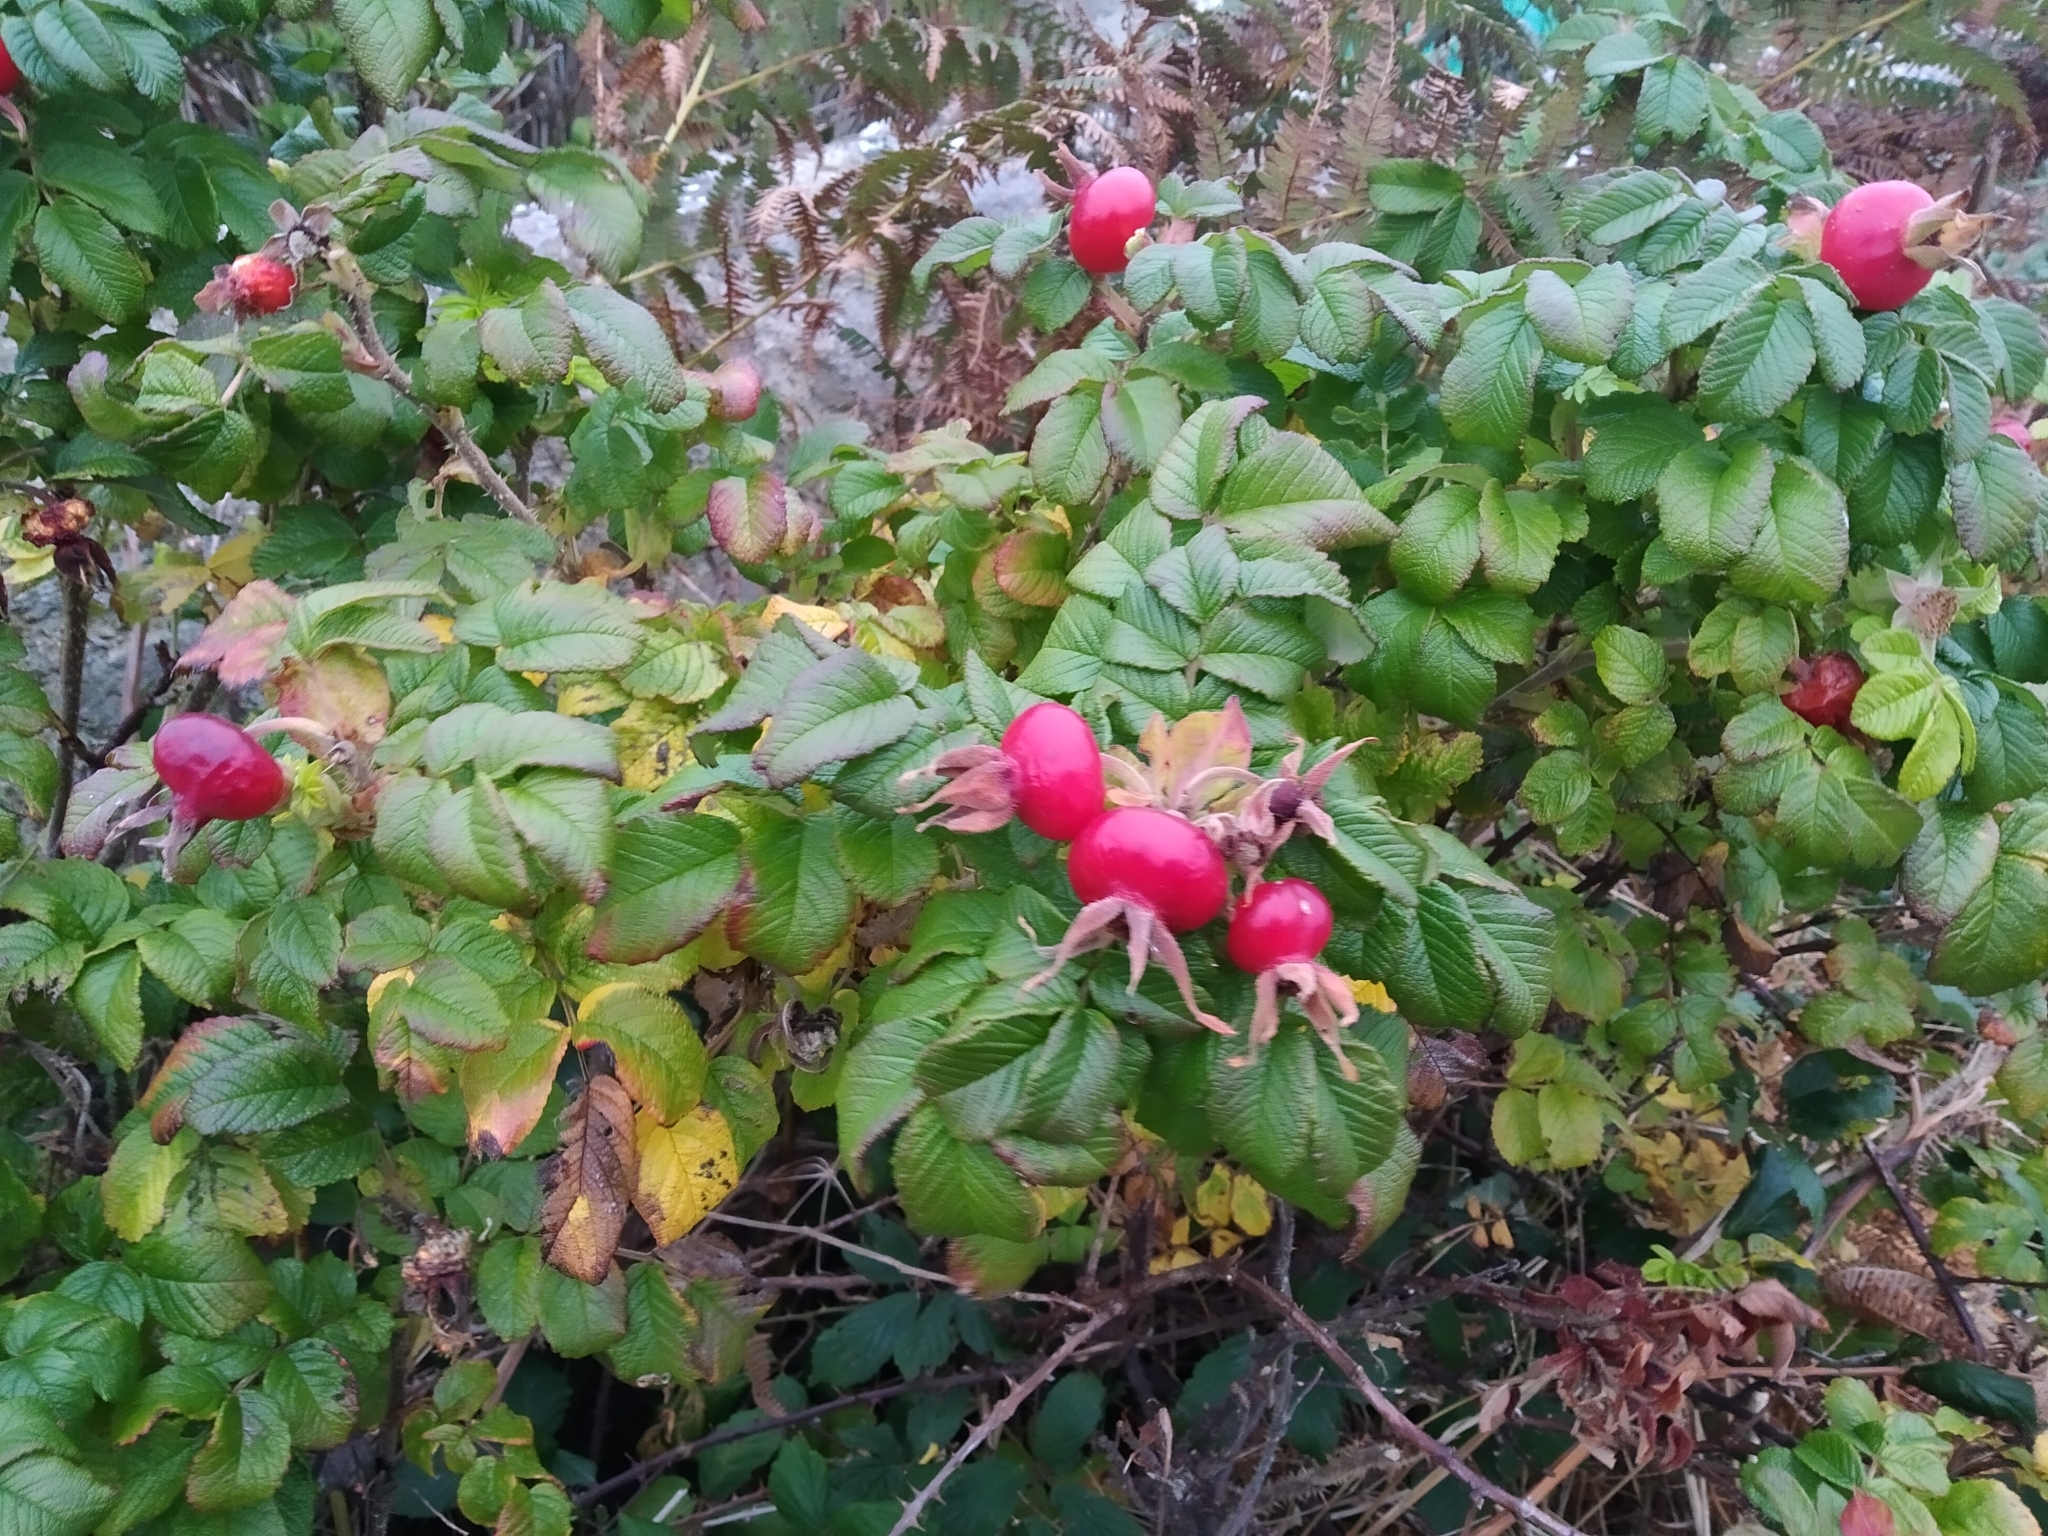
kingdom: Plantae
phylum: Tracheophyta
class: Magnoliopsida
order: Rosales
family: Rosaceae
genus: Rosa
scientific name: Rosa rugosa
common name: Japanese rose
